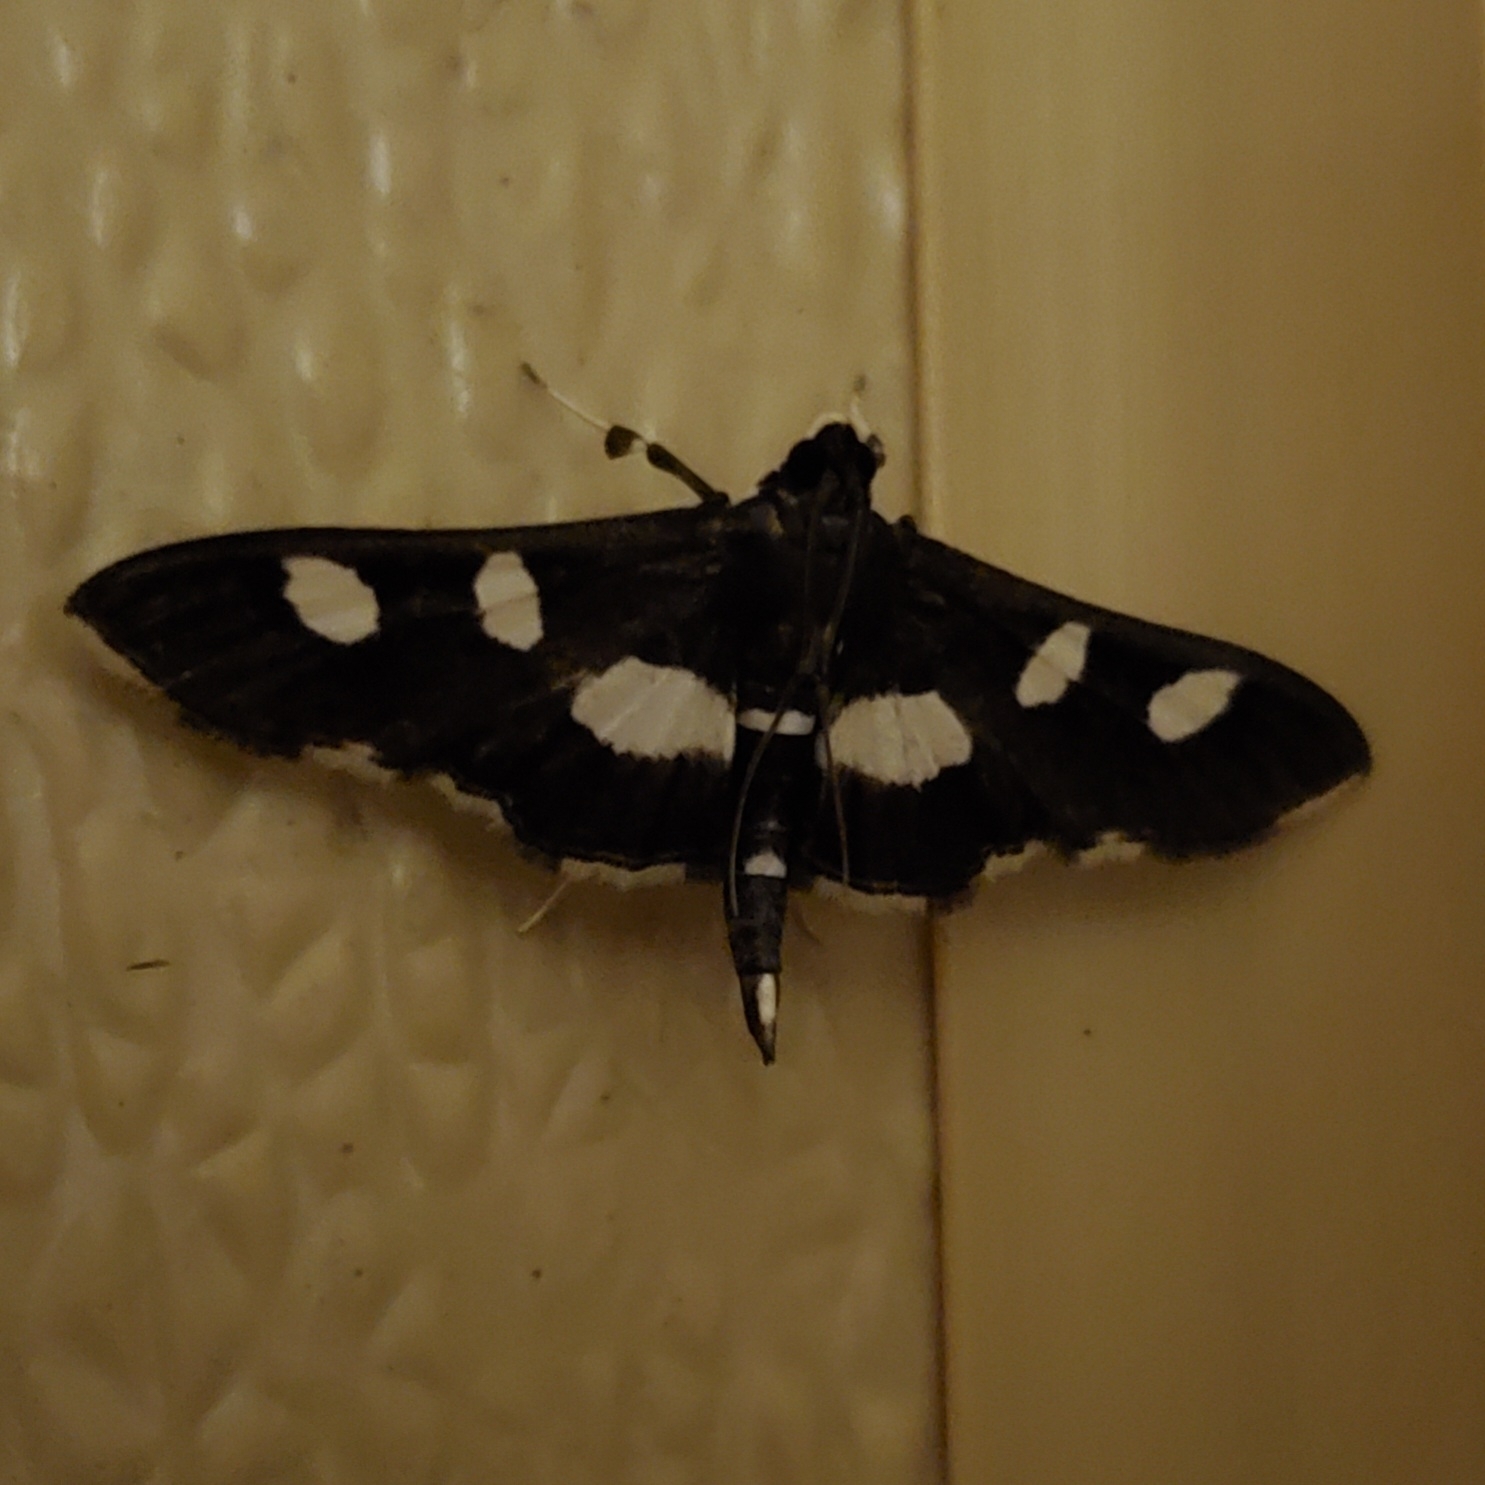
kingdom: Animalia
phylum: Arthropoda
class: Insecta
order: Lepidoptera
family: Crambidae
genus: Desmia
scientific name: Desmia
